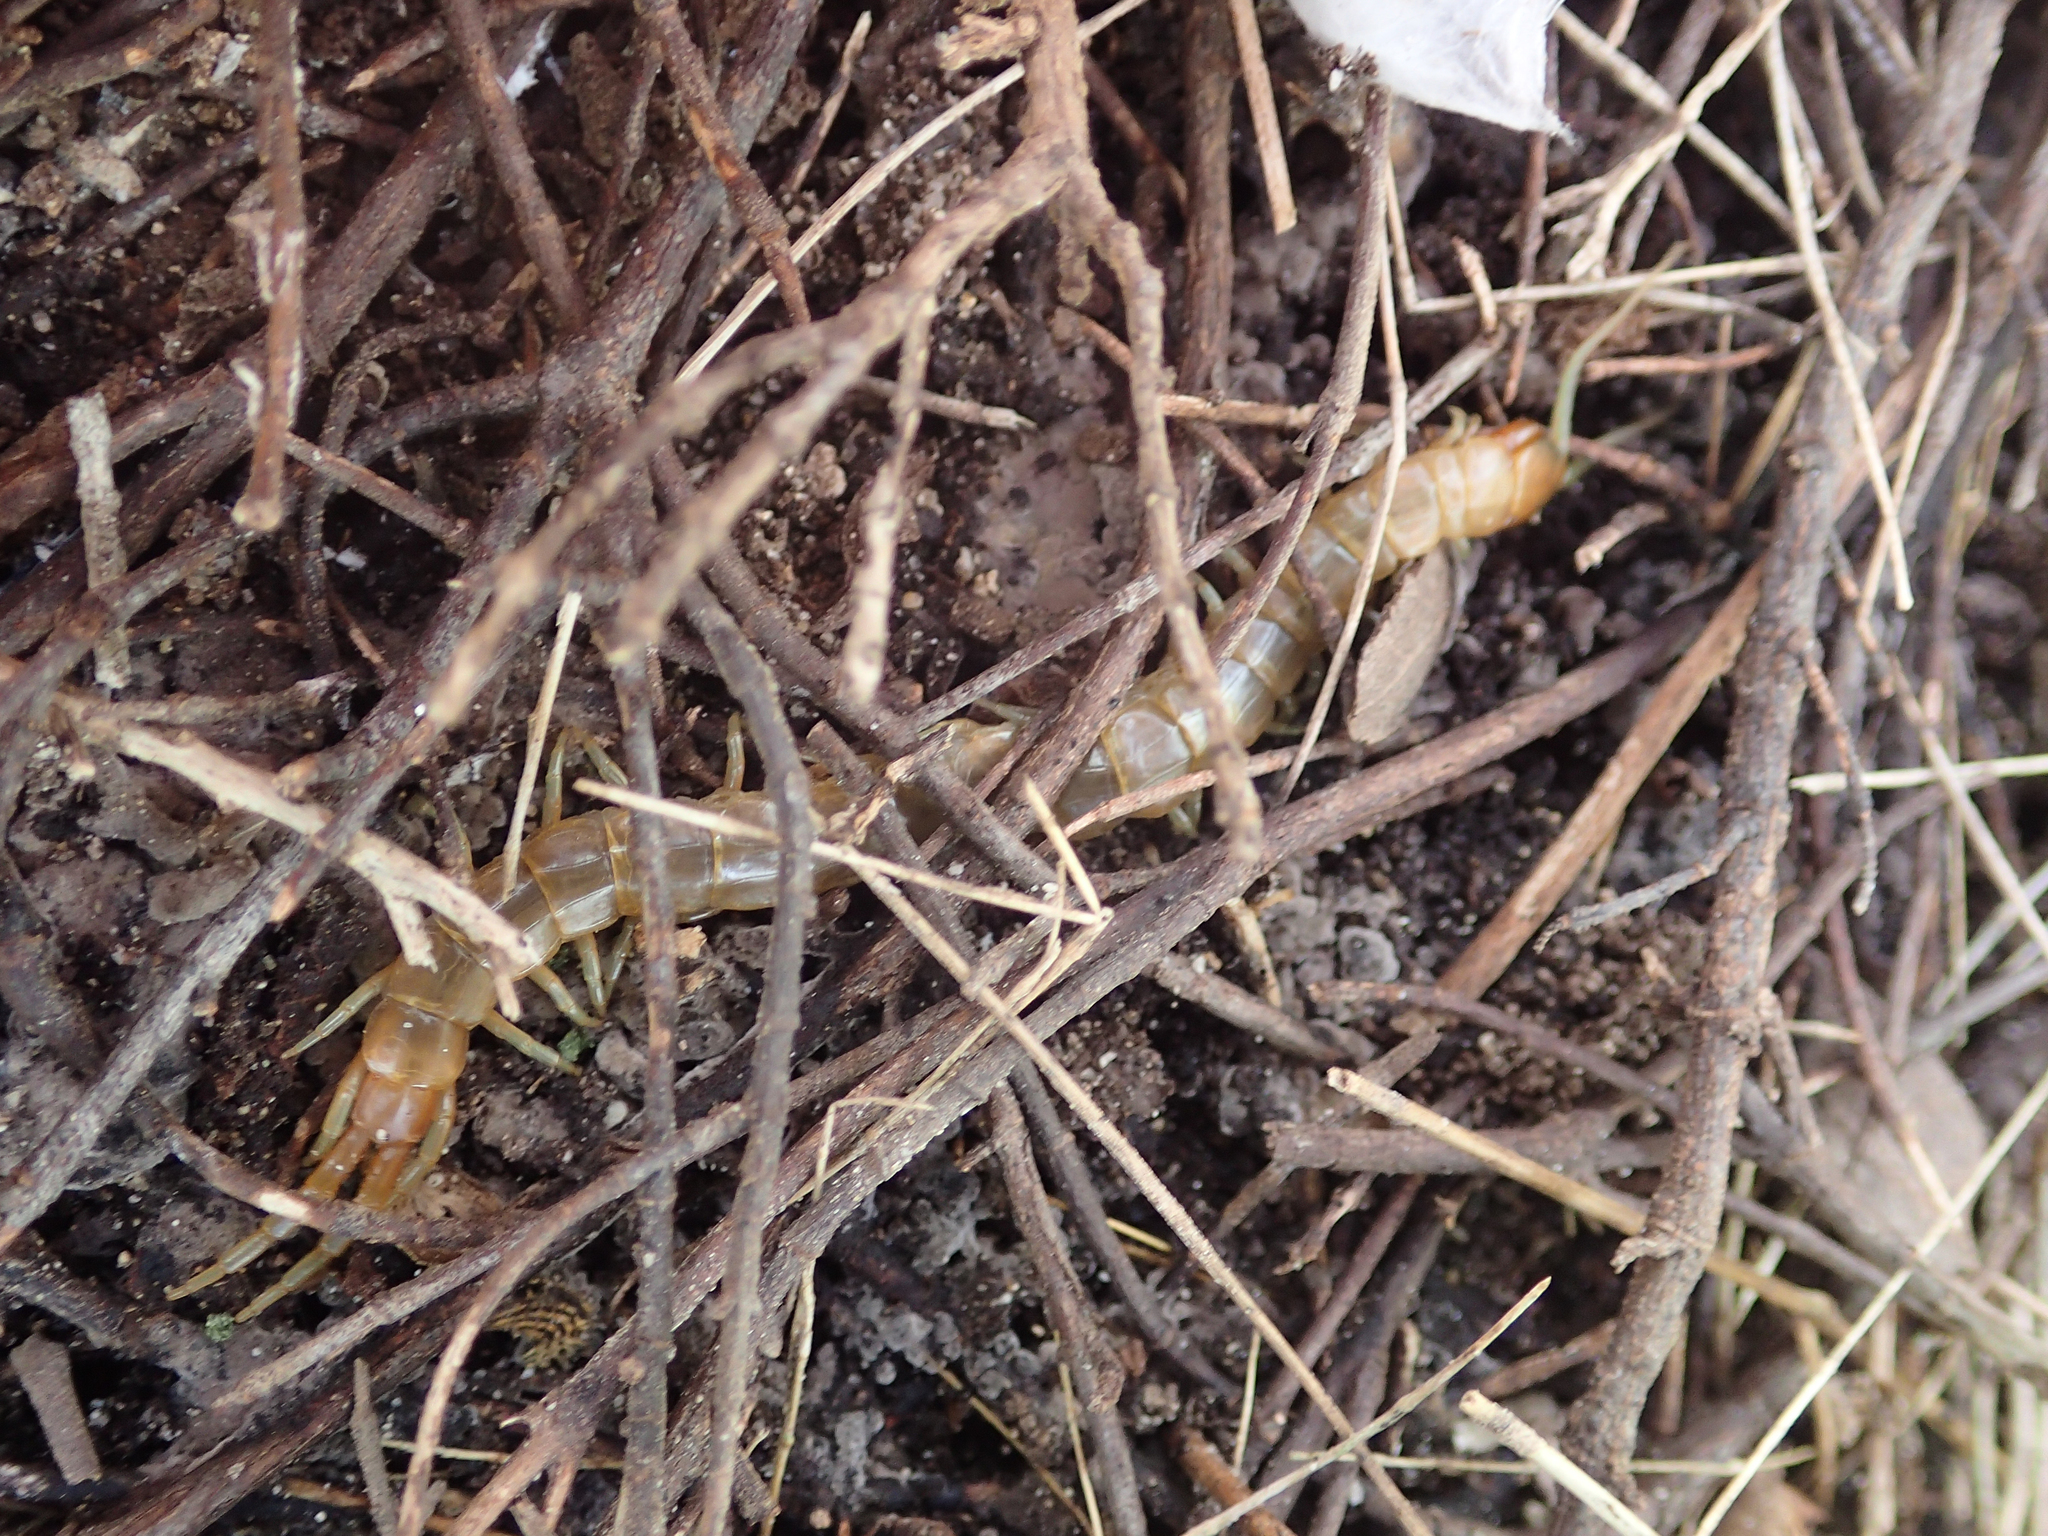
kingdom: Animalia
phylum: Arthropoda
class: Chilopoda
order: Scolopendromorpha
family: Scolopendridae
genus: Scolopendra
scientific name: Scolopendra oraniensis
